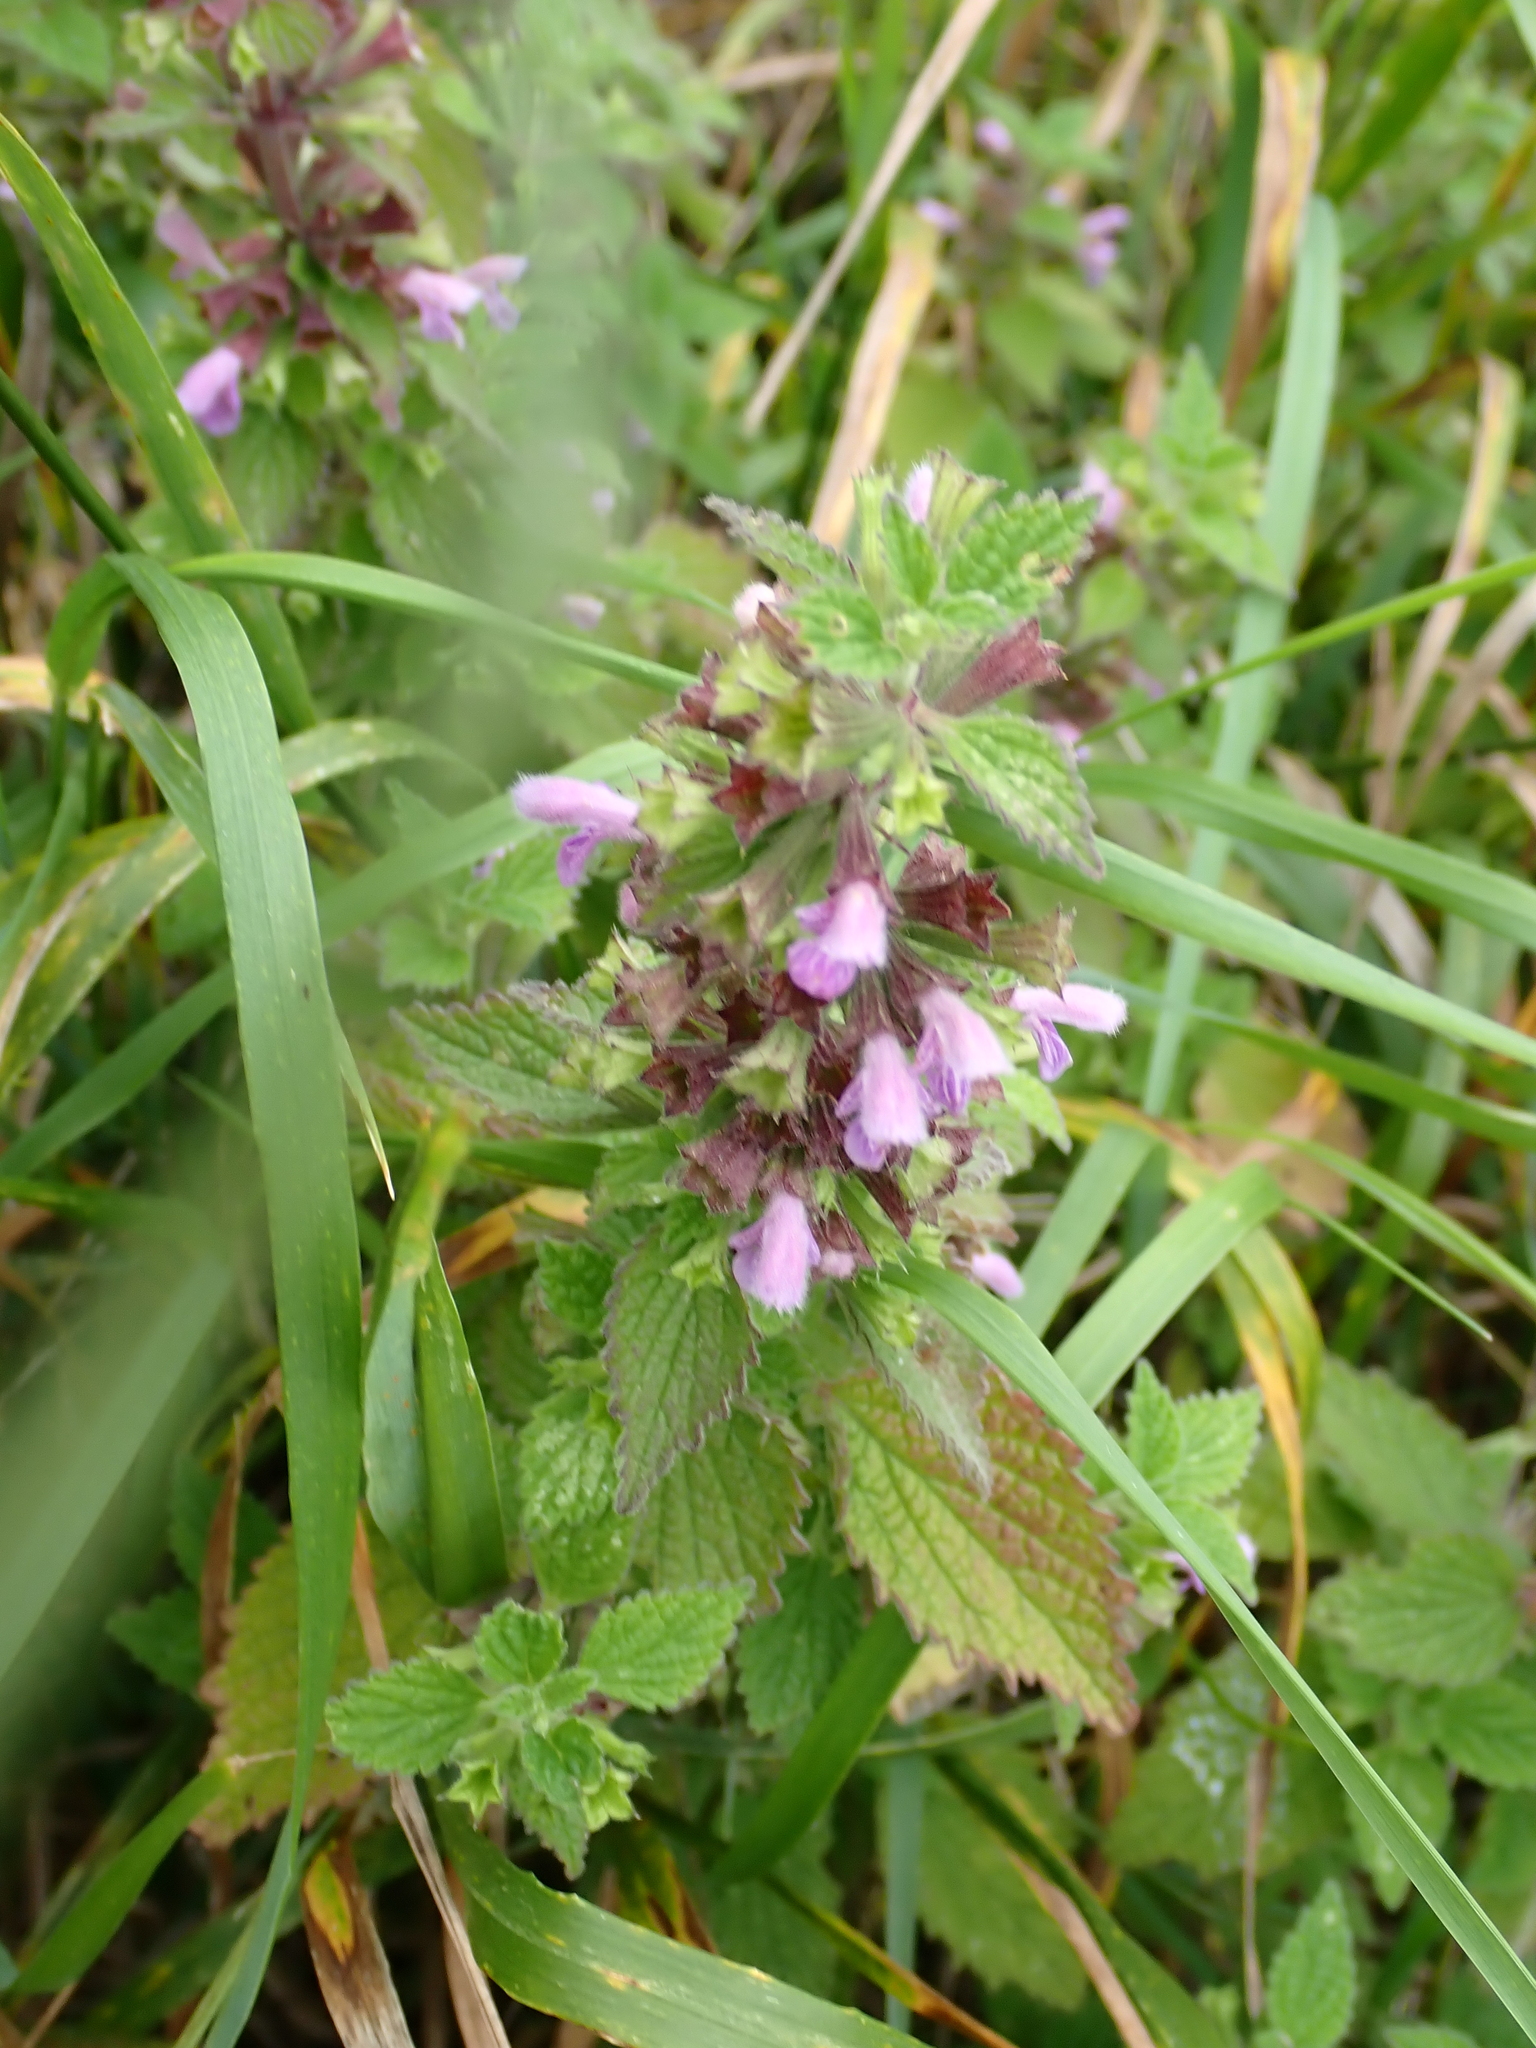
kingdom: Plantae
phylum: Tracheophyta
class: Magnoliopsida
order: Lamiales
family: Lamiaceae
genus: Ballota
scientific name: Ballota nigra
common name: Black horehound
